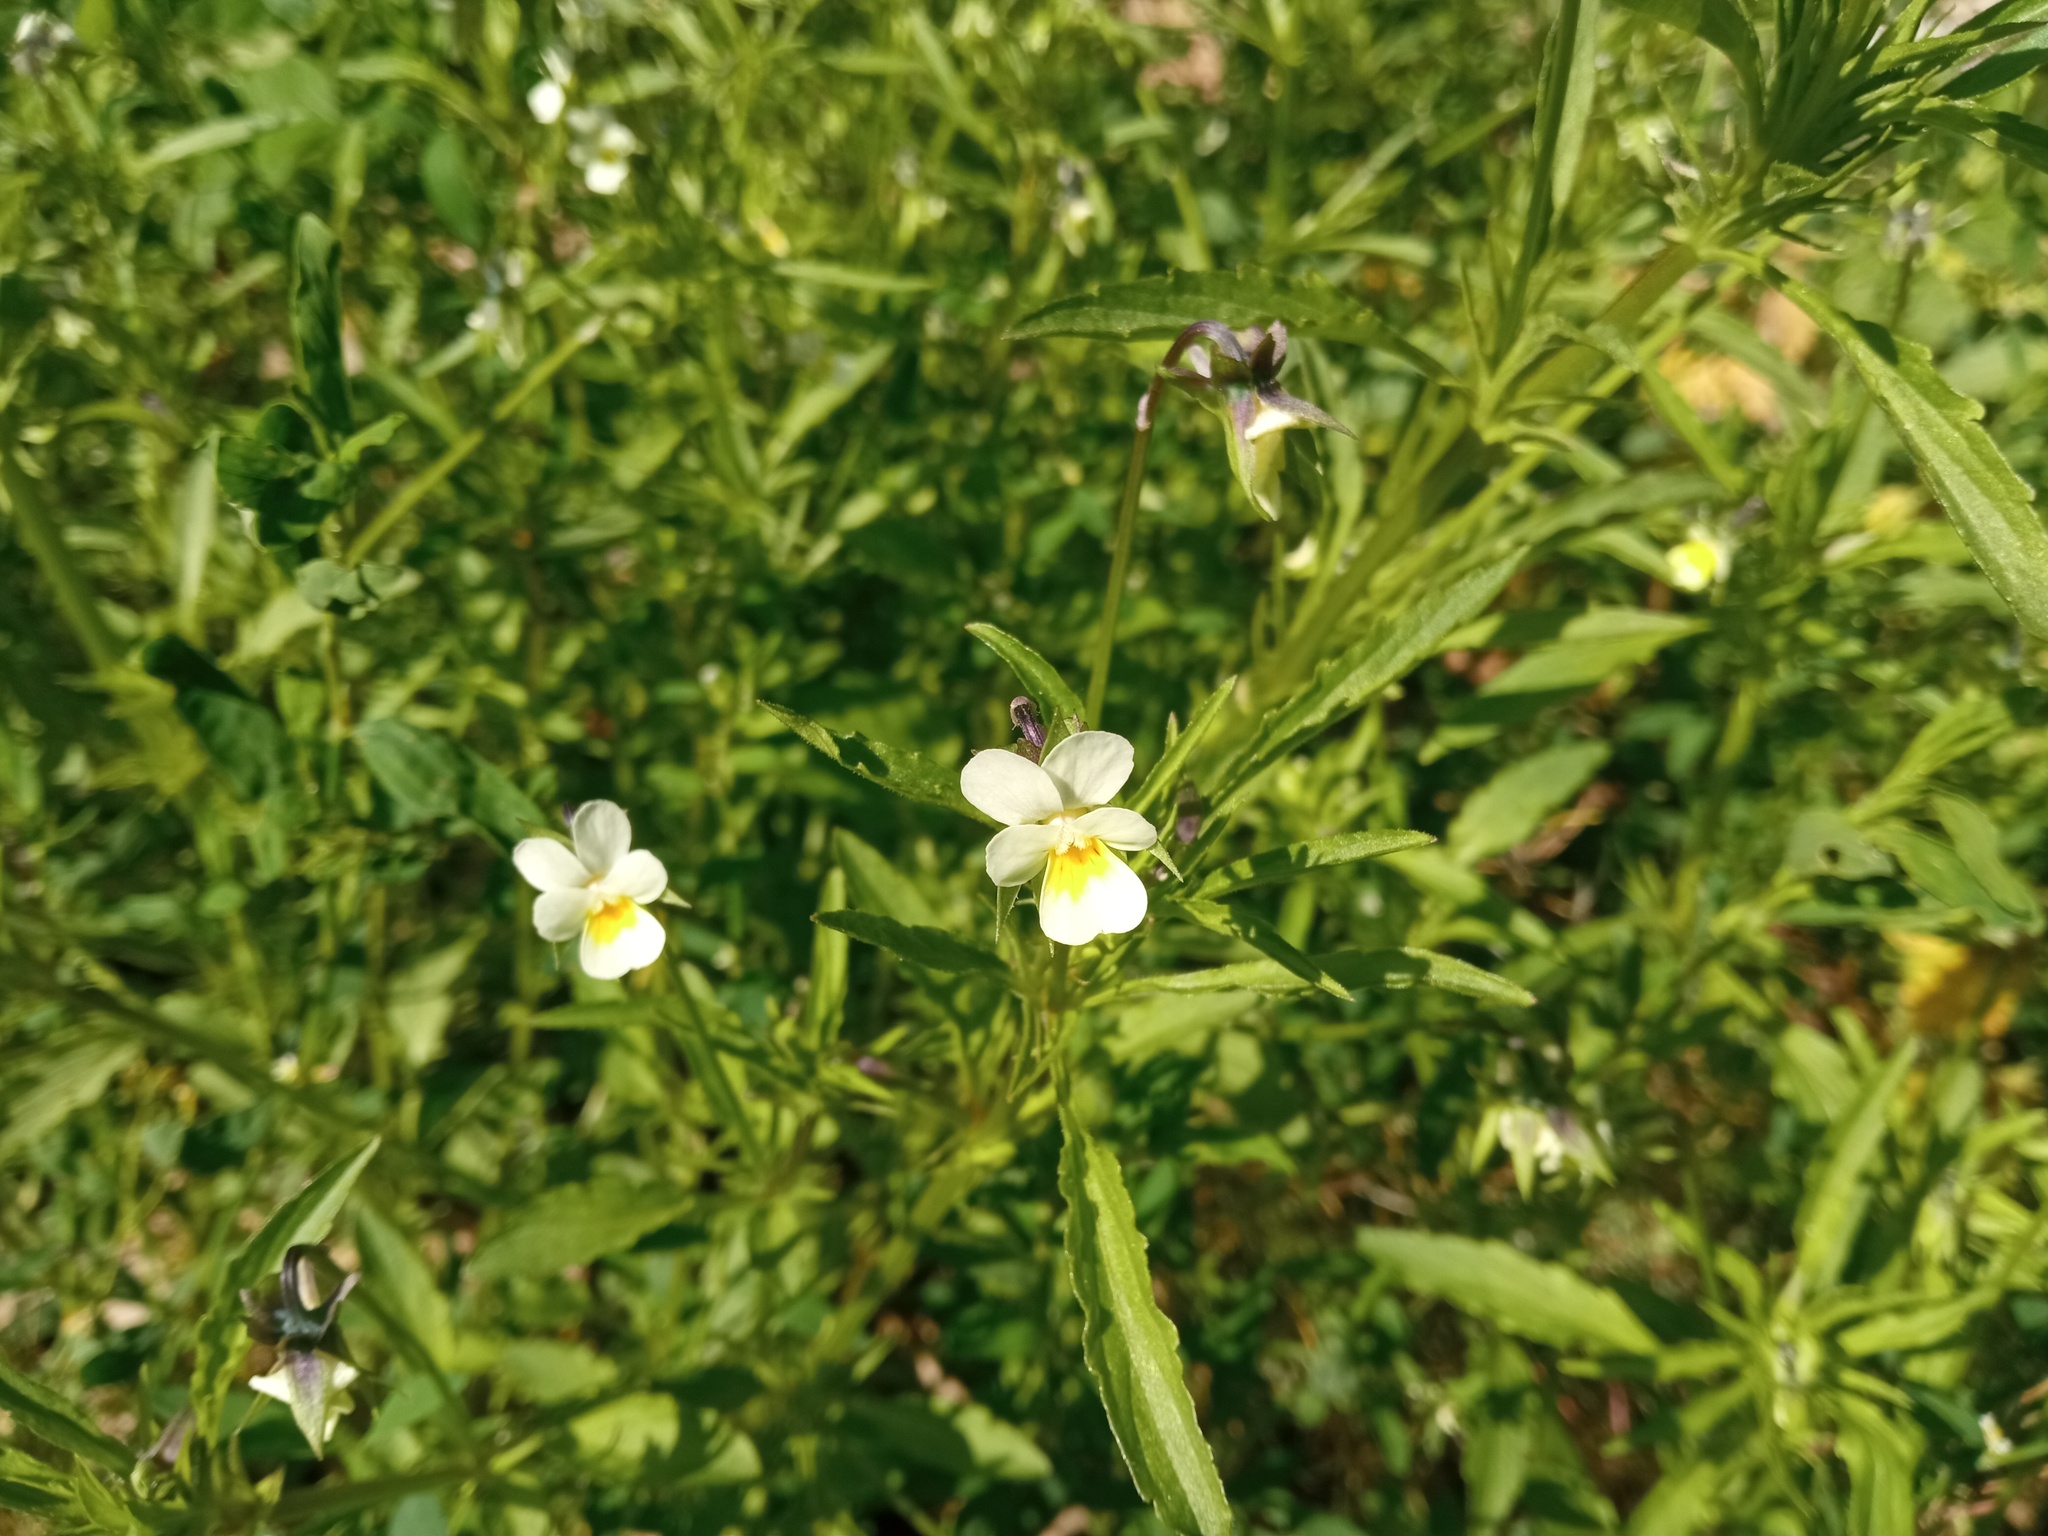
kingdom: Plantae
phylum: Tracheophyta
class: Magnoliopsida
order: Malpighiales
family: Violaceae
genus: Viola
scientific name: Viola arvensis
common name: Field pansy
